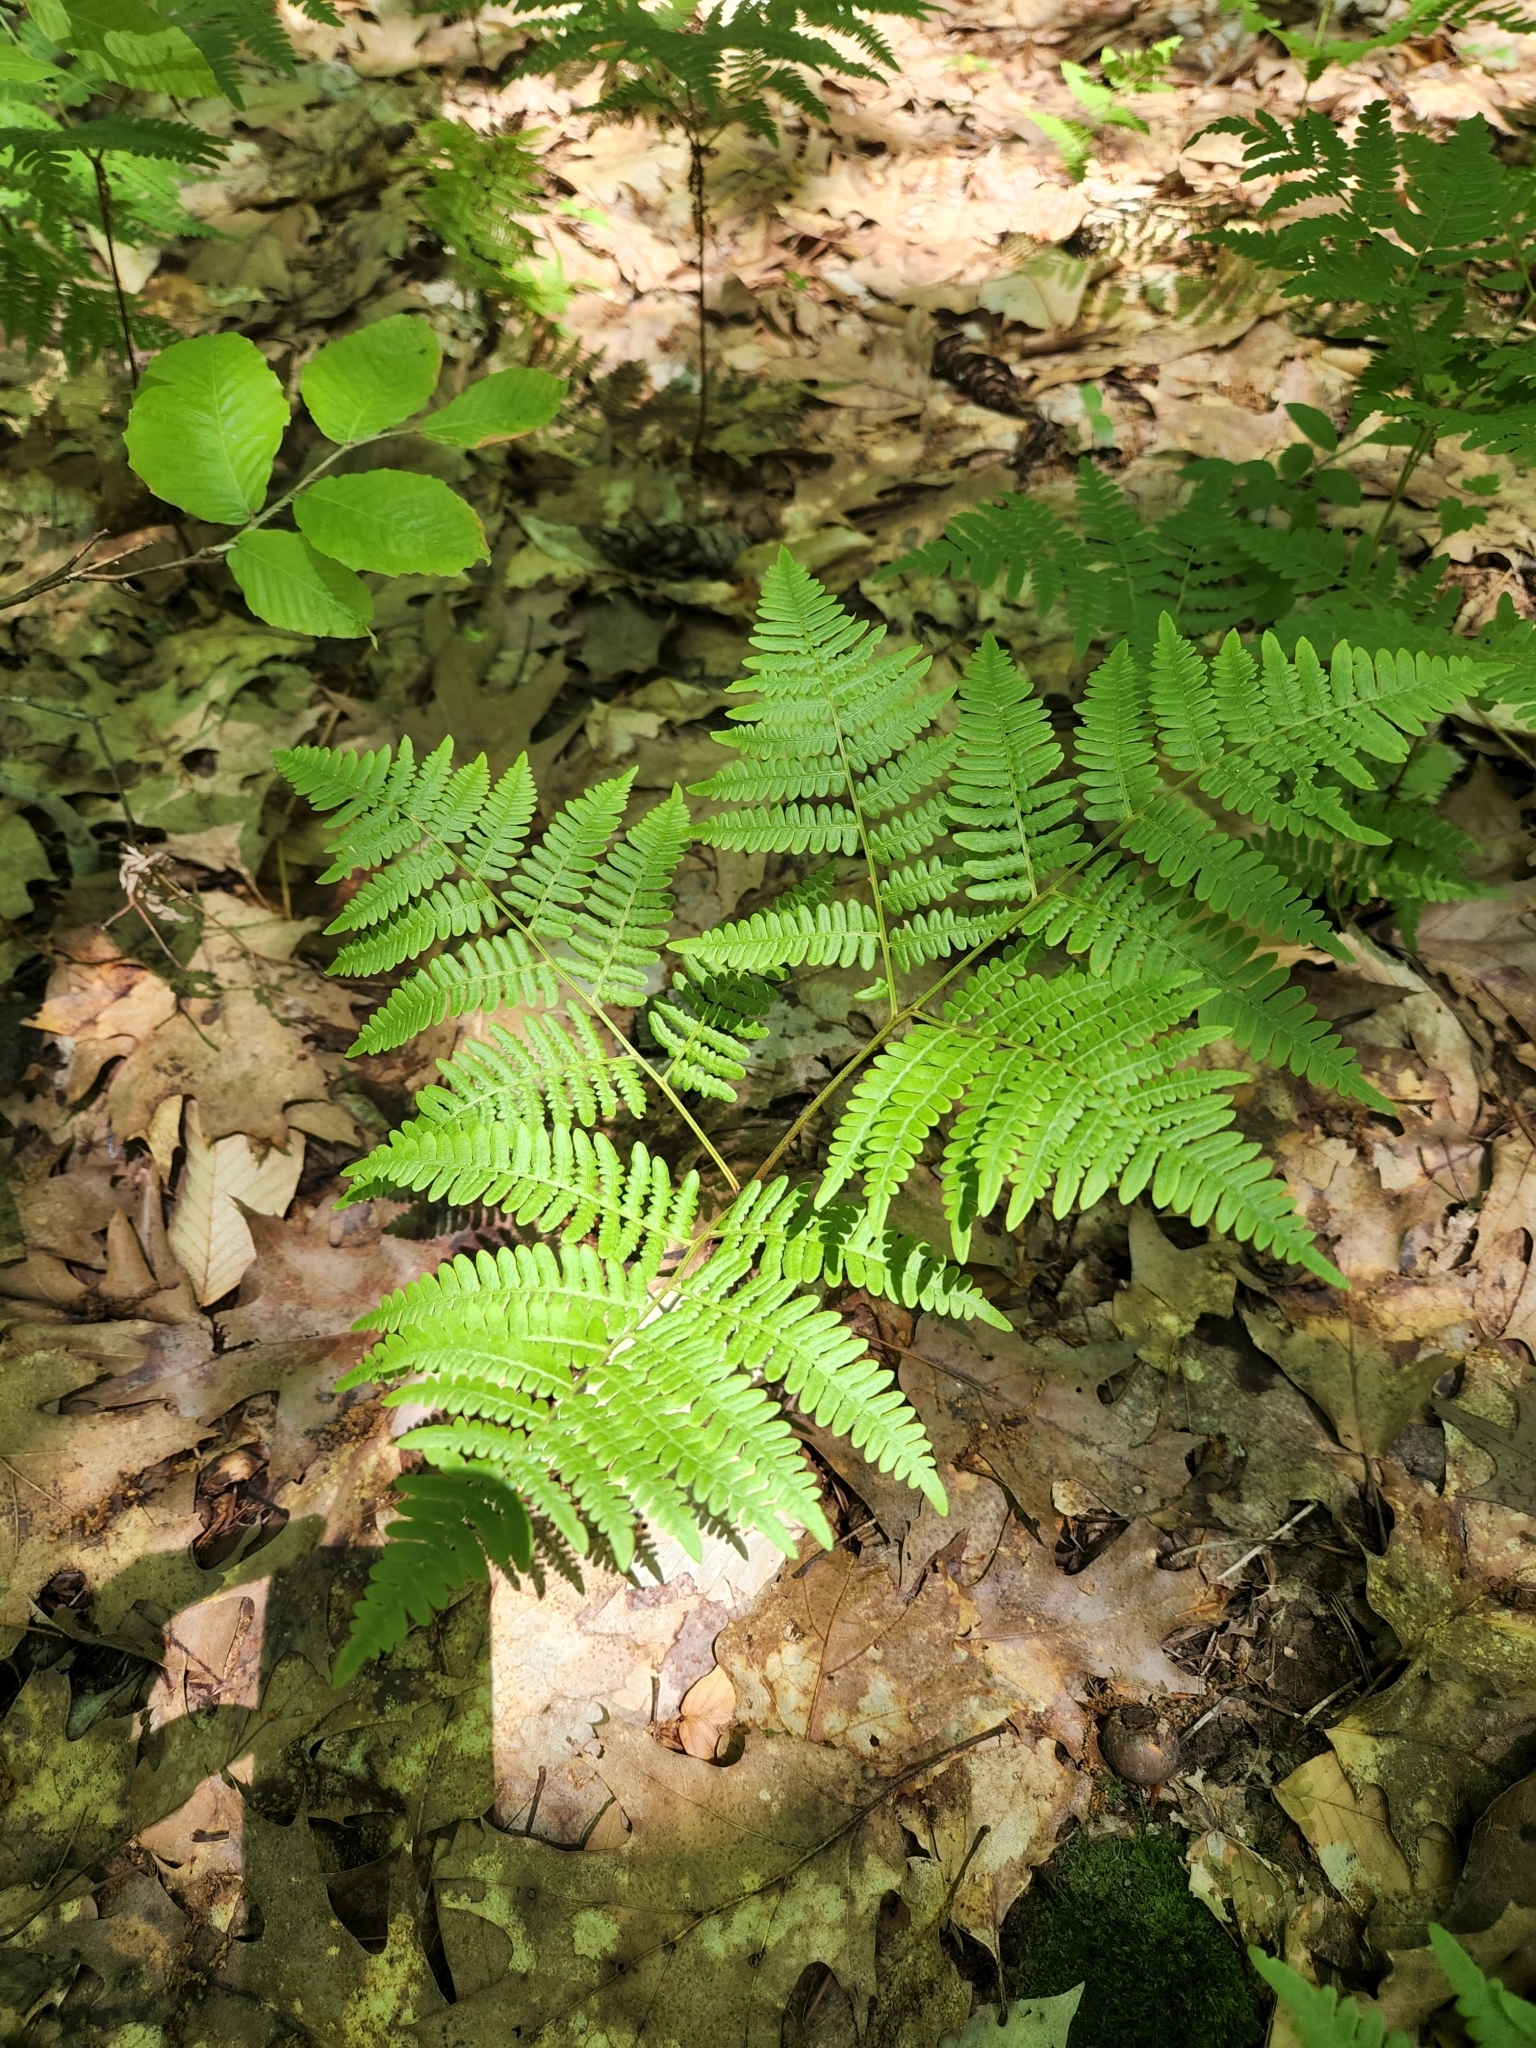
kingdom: Plantae
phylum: Tracheophyta
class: Polypodiopsida
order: Polypodiales
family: Dennstaedtiaceae
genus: Pteridium
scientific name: Pteridium aquilinum
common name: Bracken
